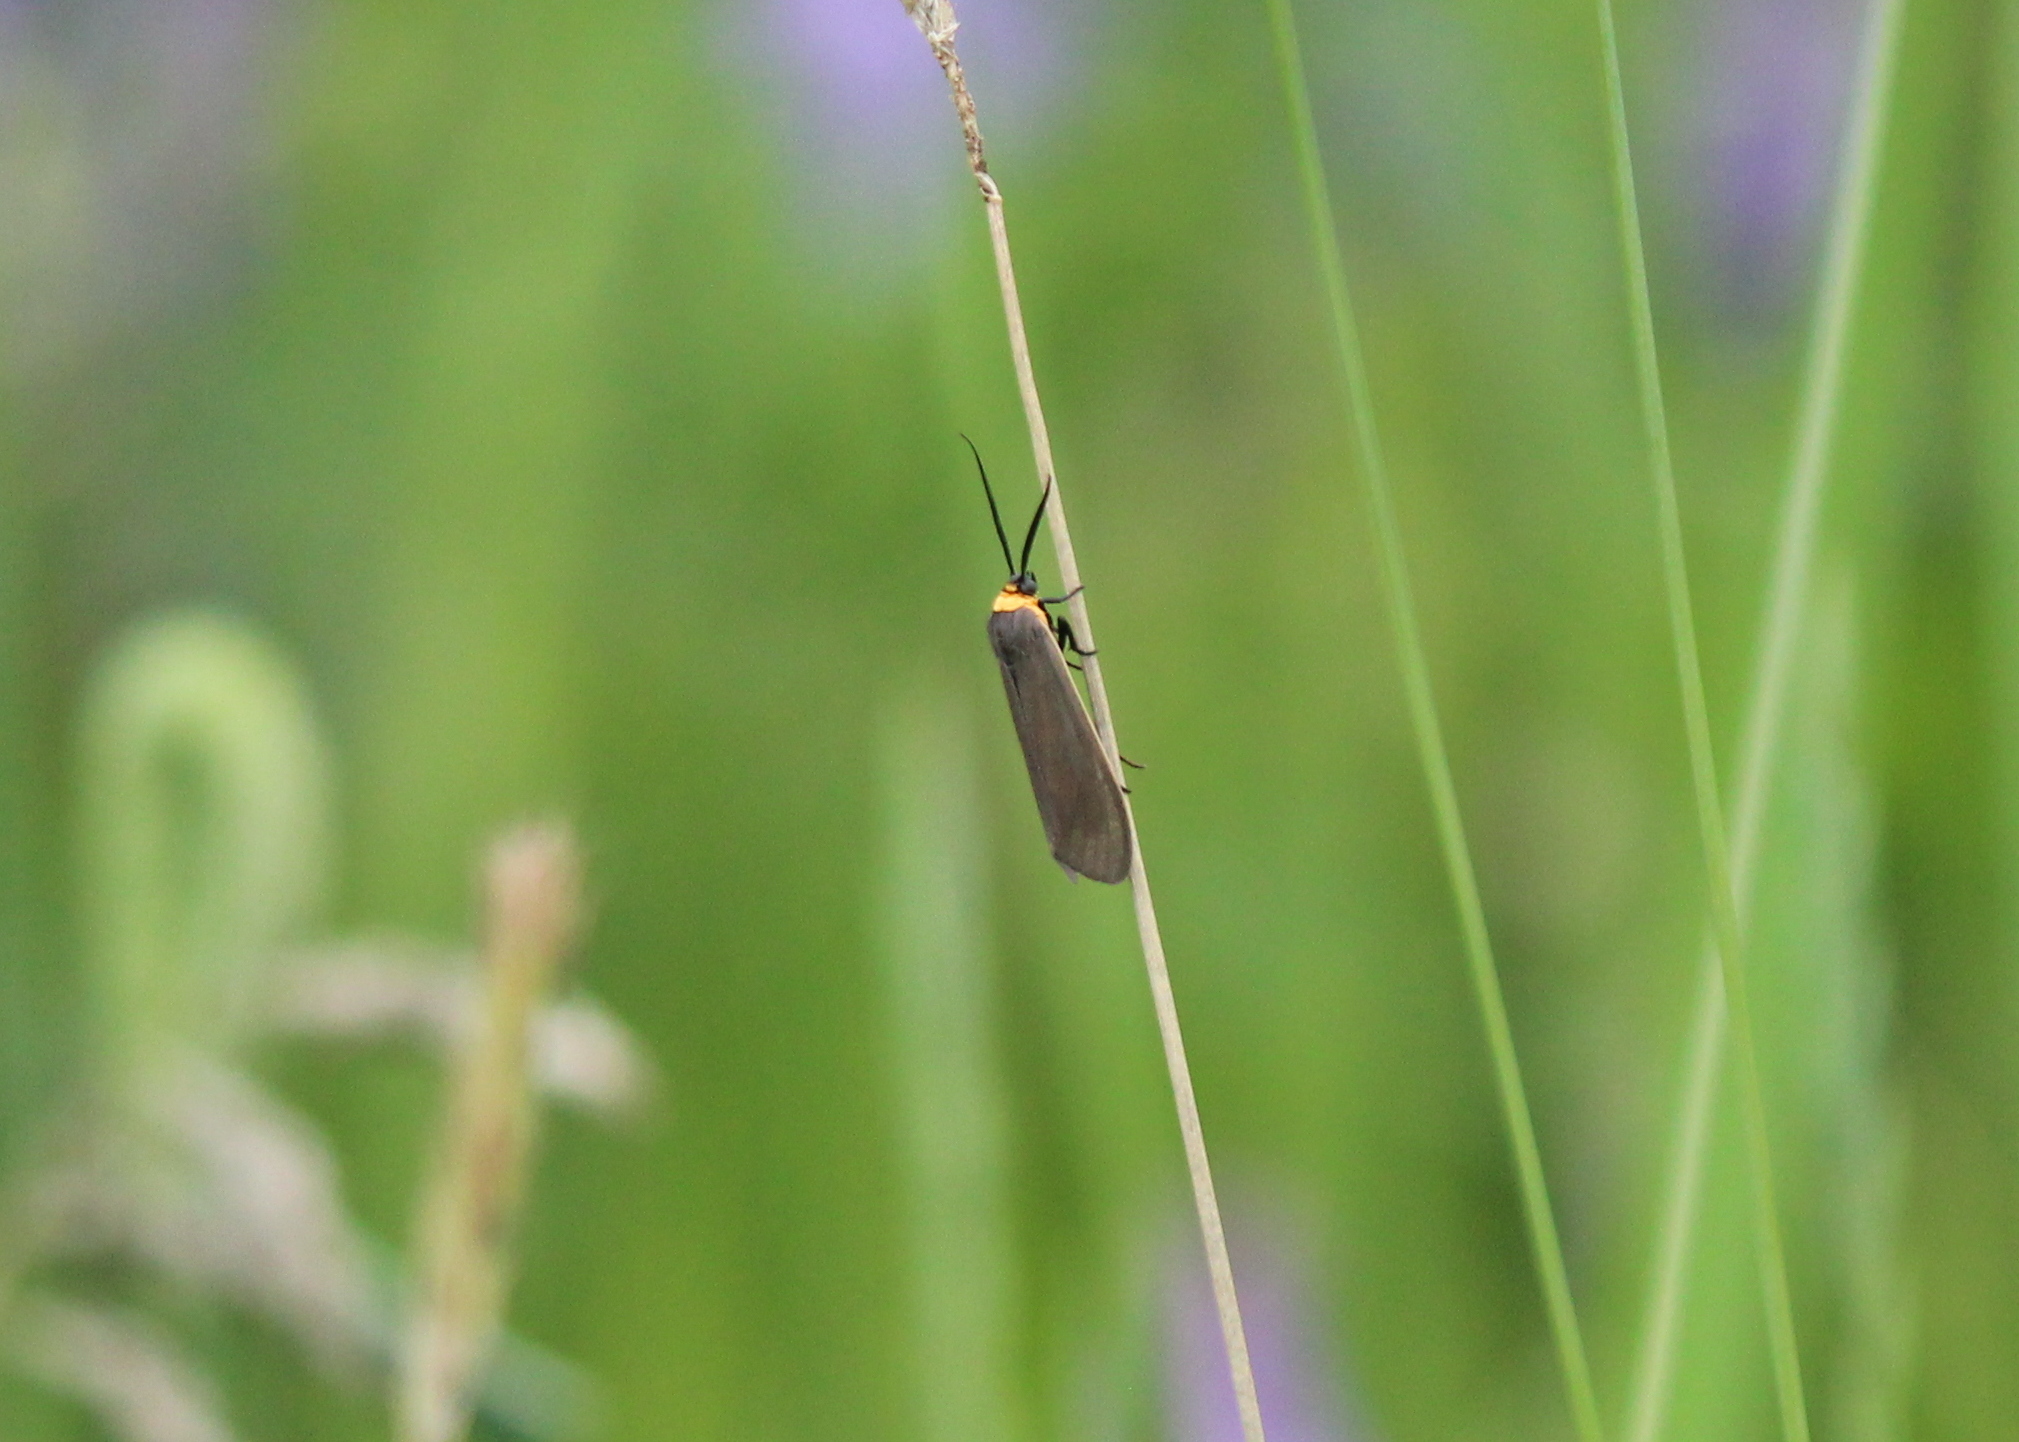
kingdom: Animalia
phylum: Arthropoda
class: Insecta
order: Lepidoptera
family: Erebidae
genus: Cisseps
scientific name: Cisseps fulvicollis
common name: Yellow-collared scape moth
